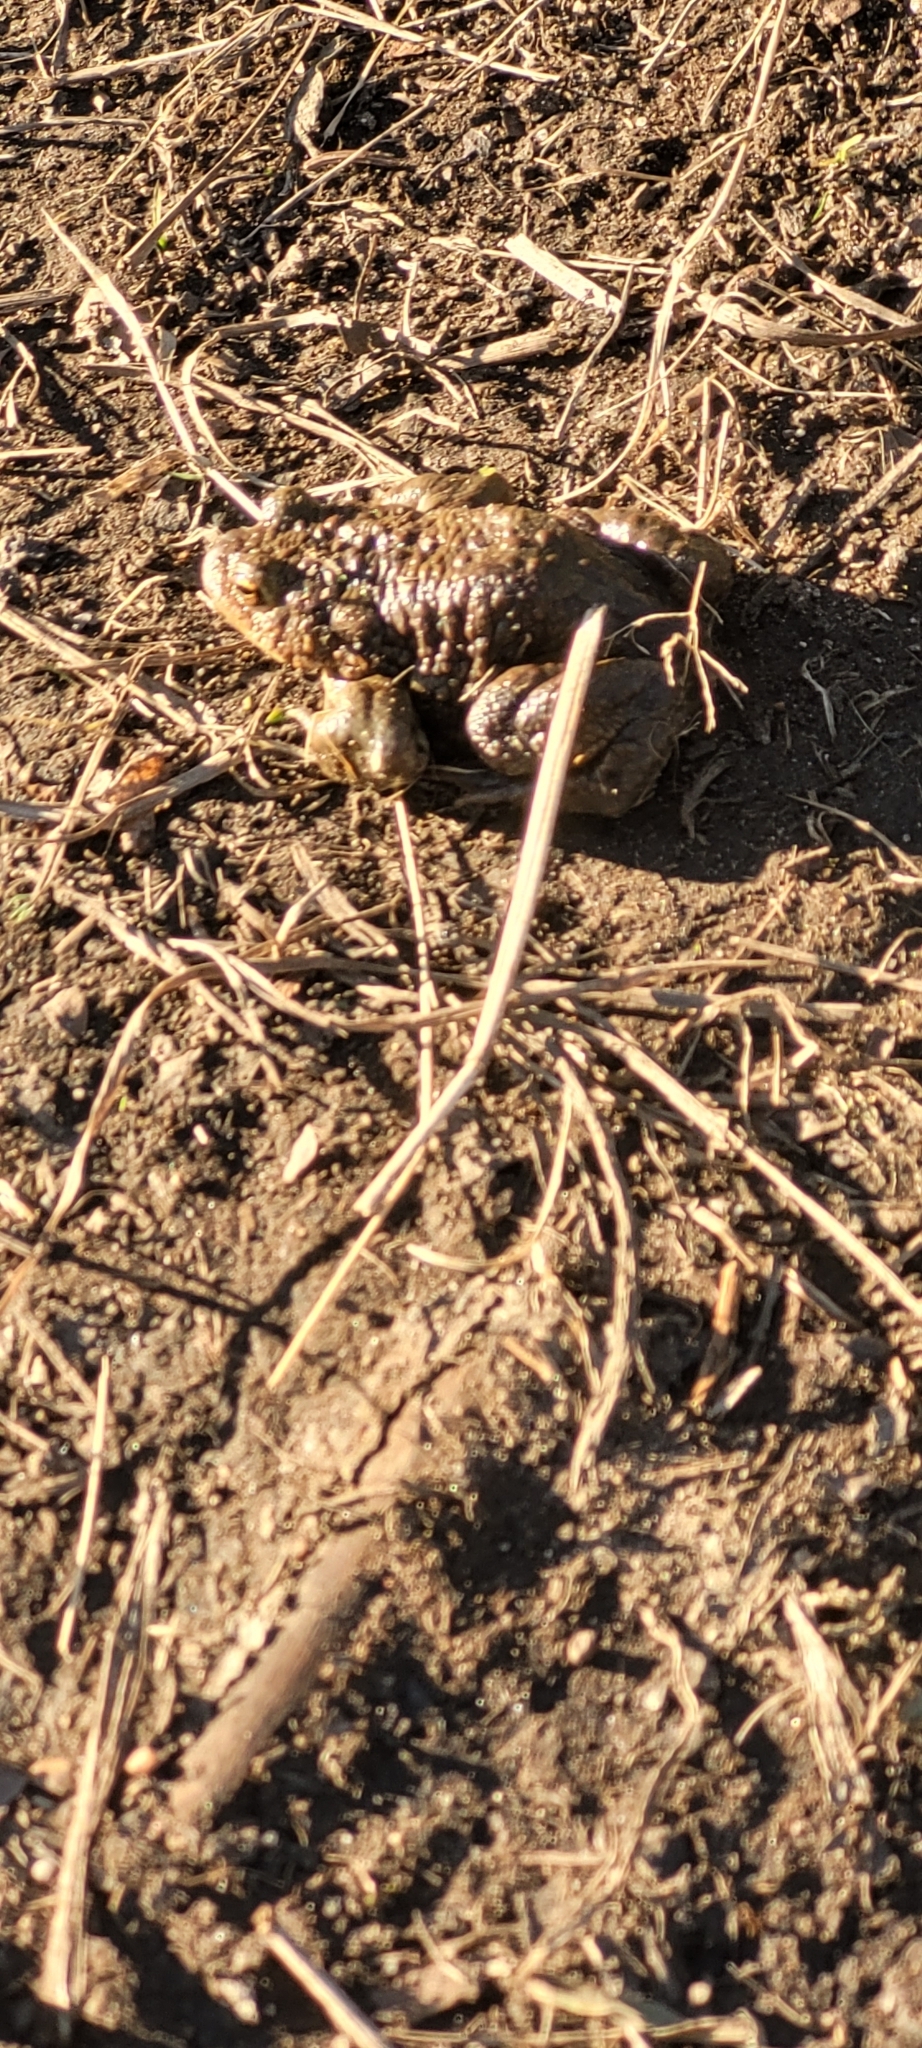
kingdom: Animalia
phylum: Chordata
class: Amphibia
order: Anura
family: Bufonidae
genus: Bufo
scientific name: Bufo bufo
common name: Common toad
